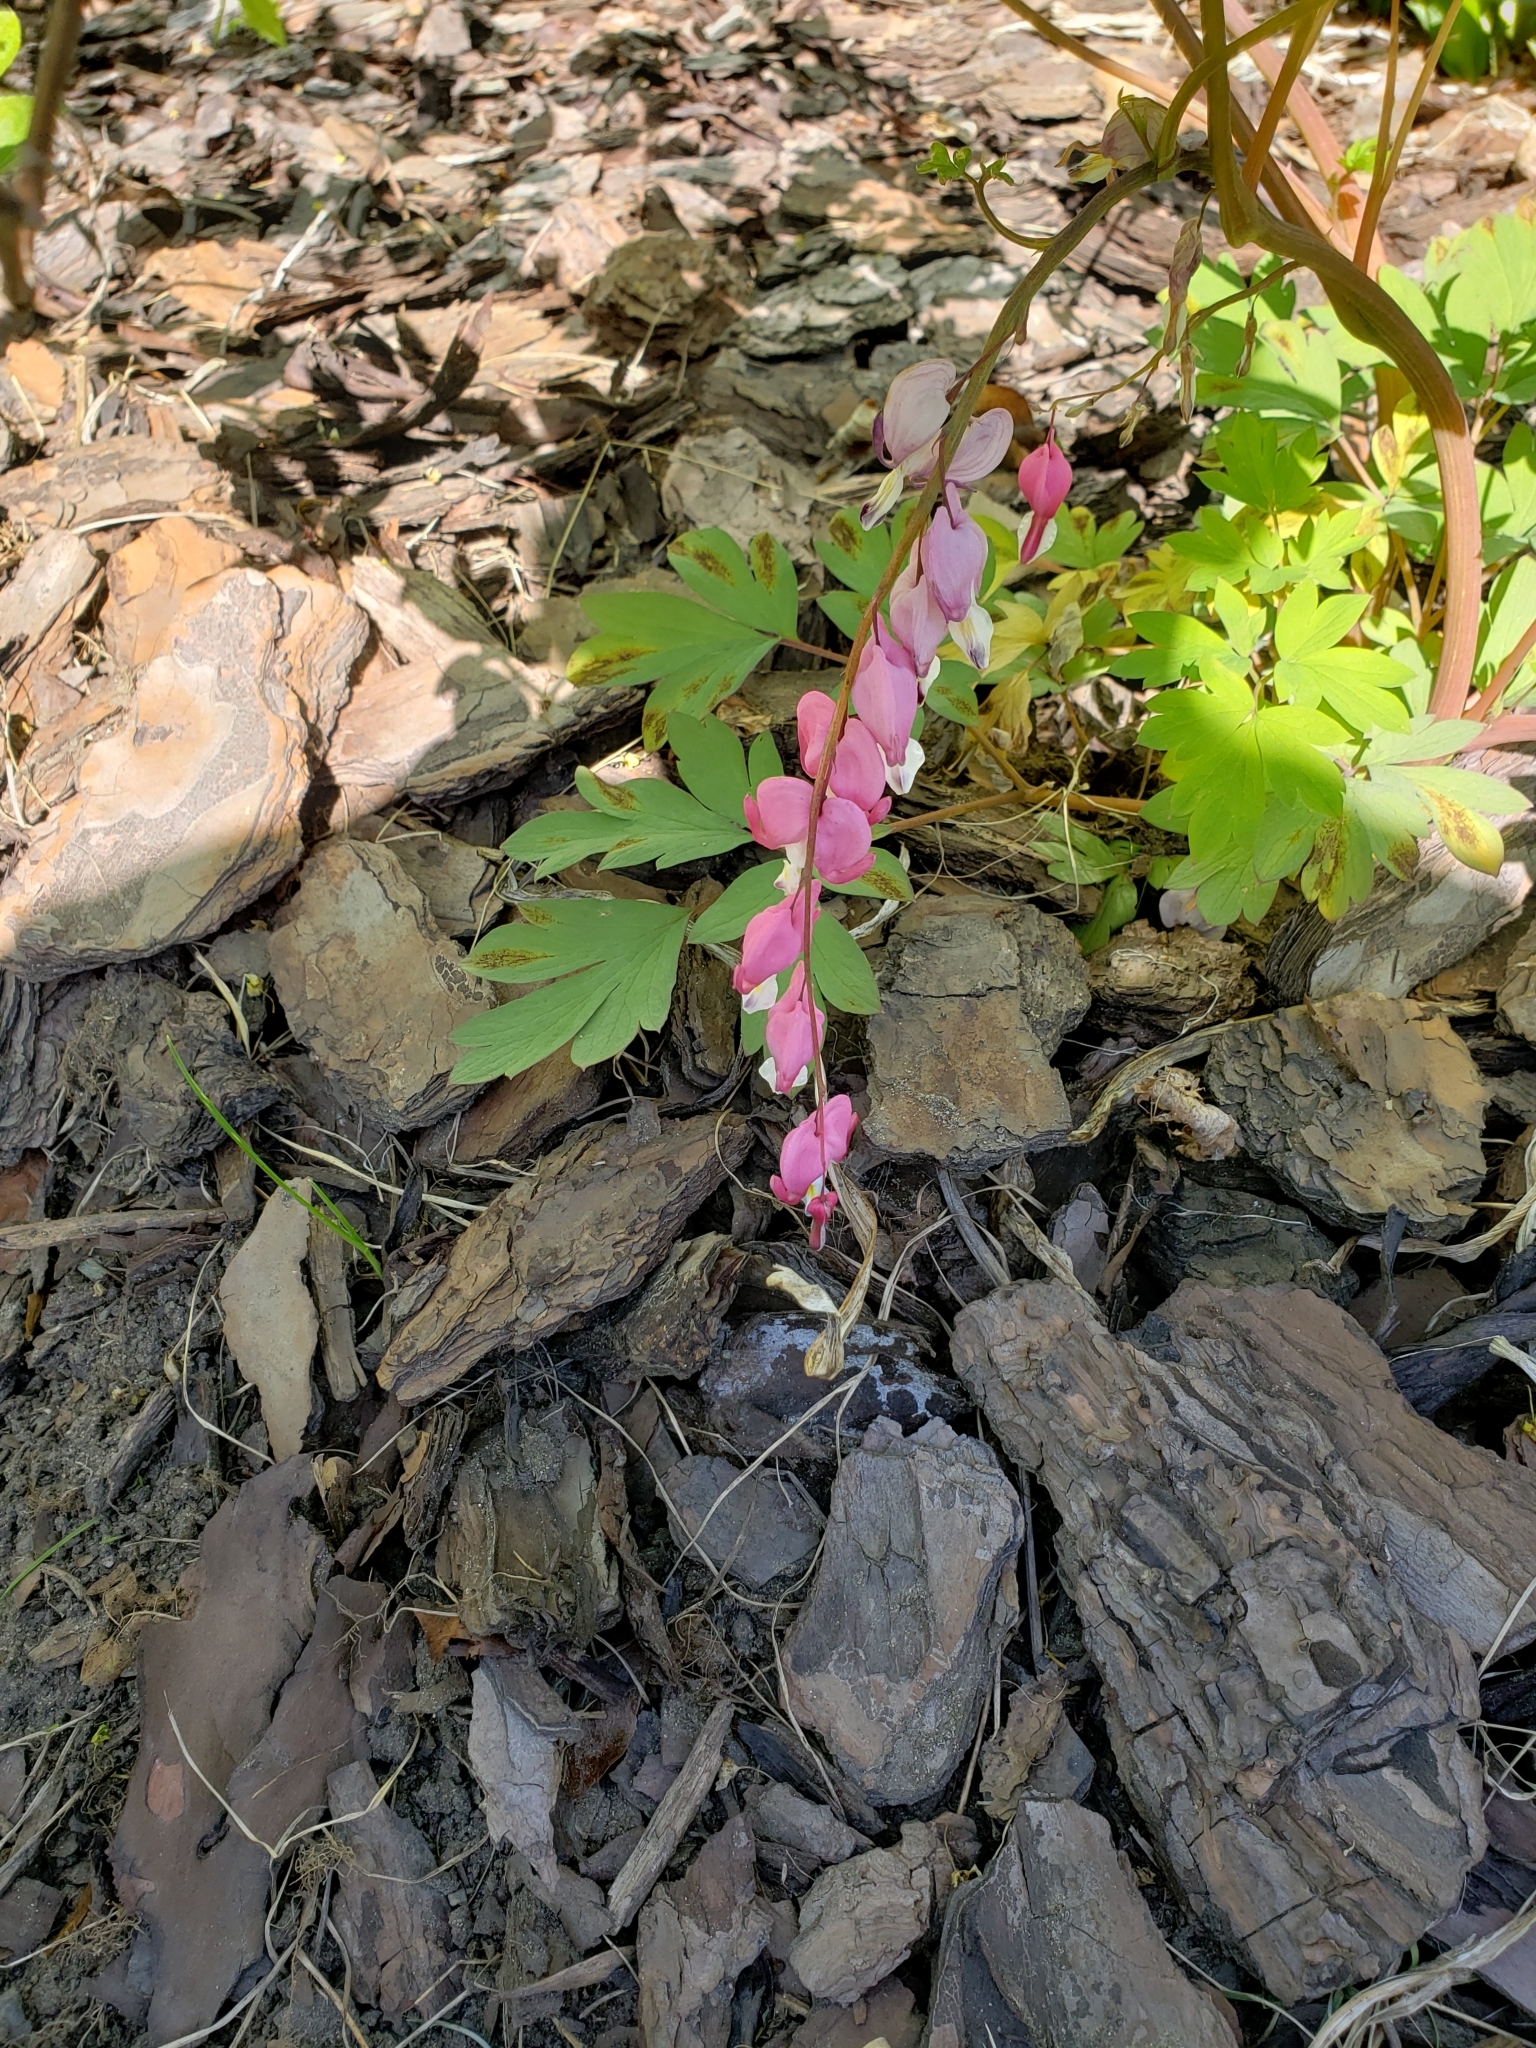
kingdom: Plantae
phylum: Tracheophyta
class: Magnoliopsida
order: Ranunculales
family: Papaveraceae
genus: Lamprocapnos
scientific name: Lamprocapnos spectabilis
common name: Asian bleeding-heart
